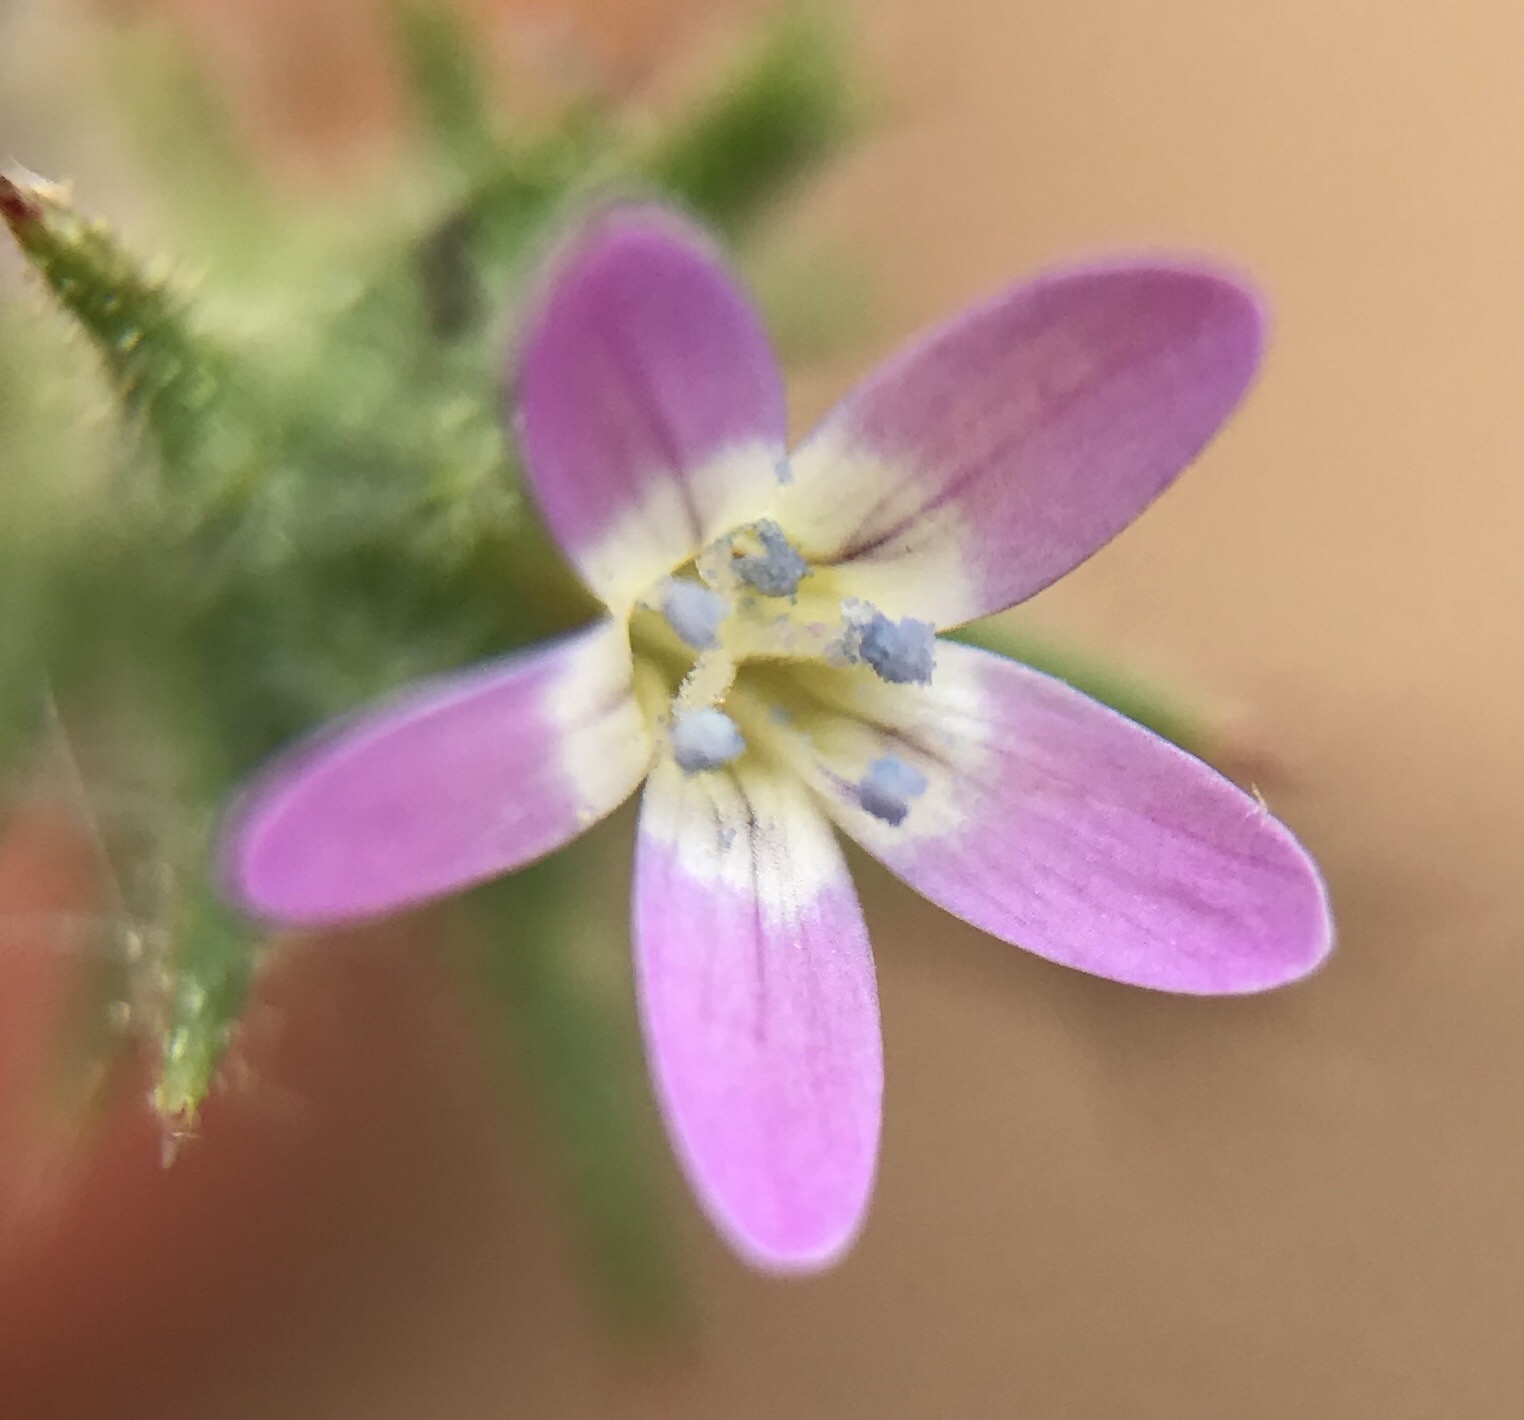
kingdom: Plantae
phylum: Tracheophyta
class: Magnoliopsida
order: Ericales
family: Polemoniaceae
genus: Navarretia
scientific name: Navarretia hamata
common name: Hooked navarretia
